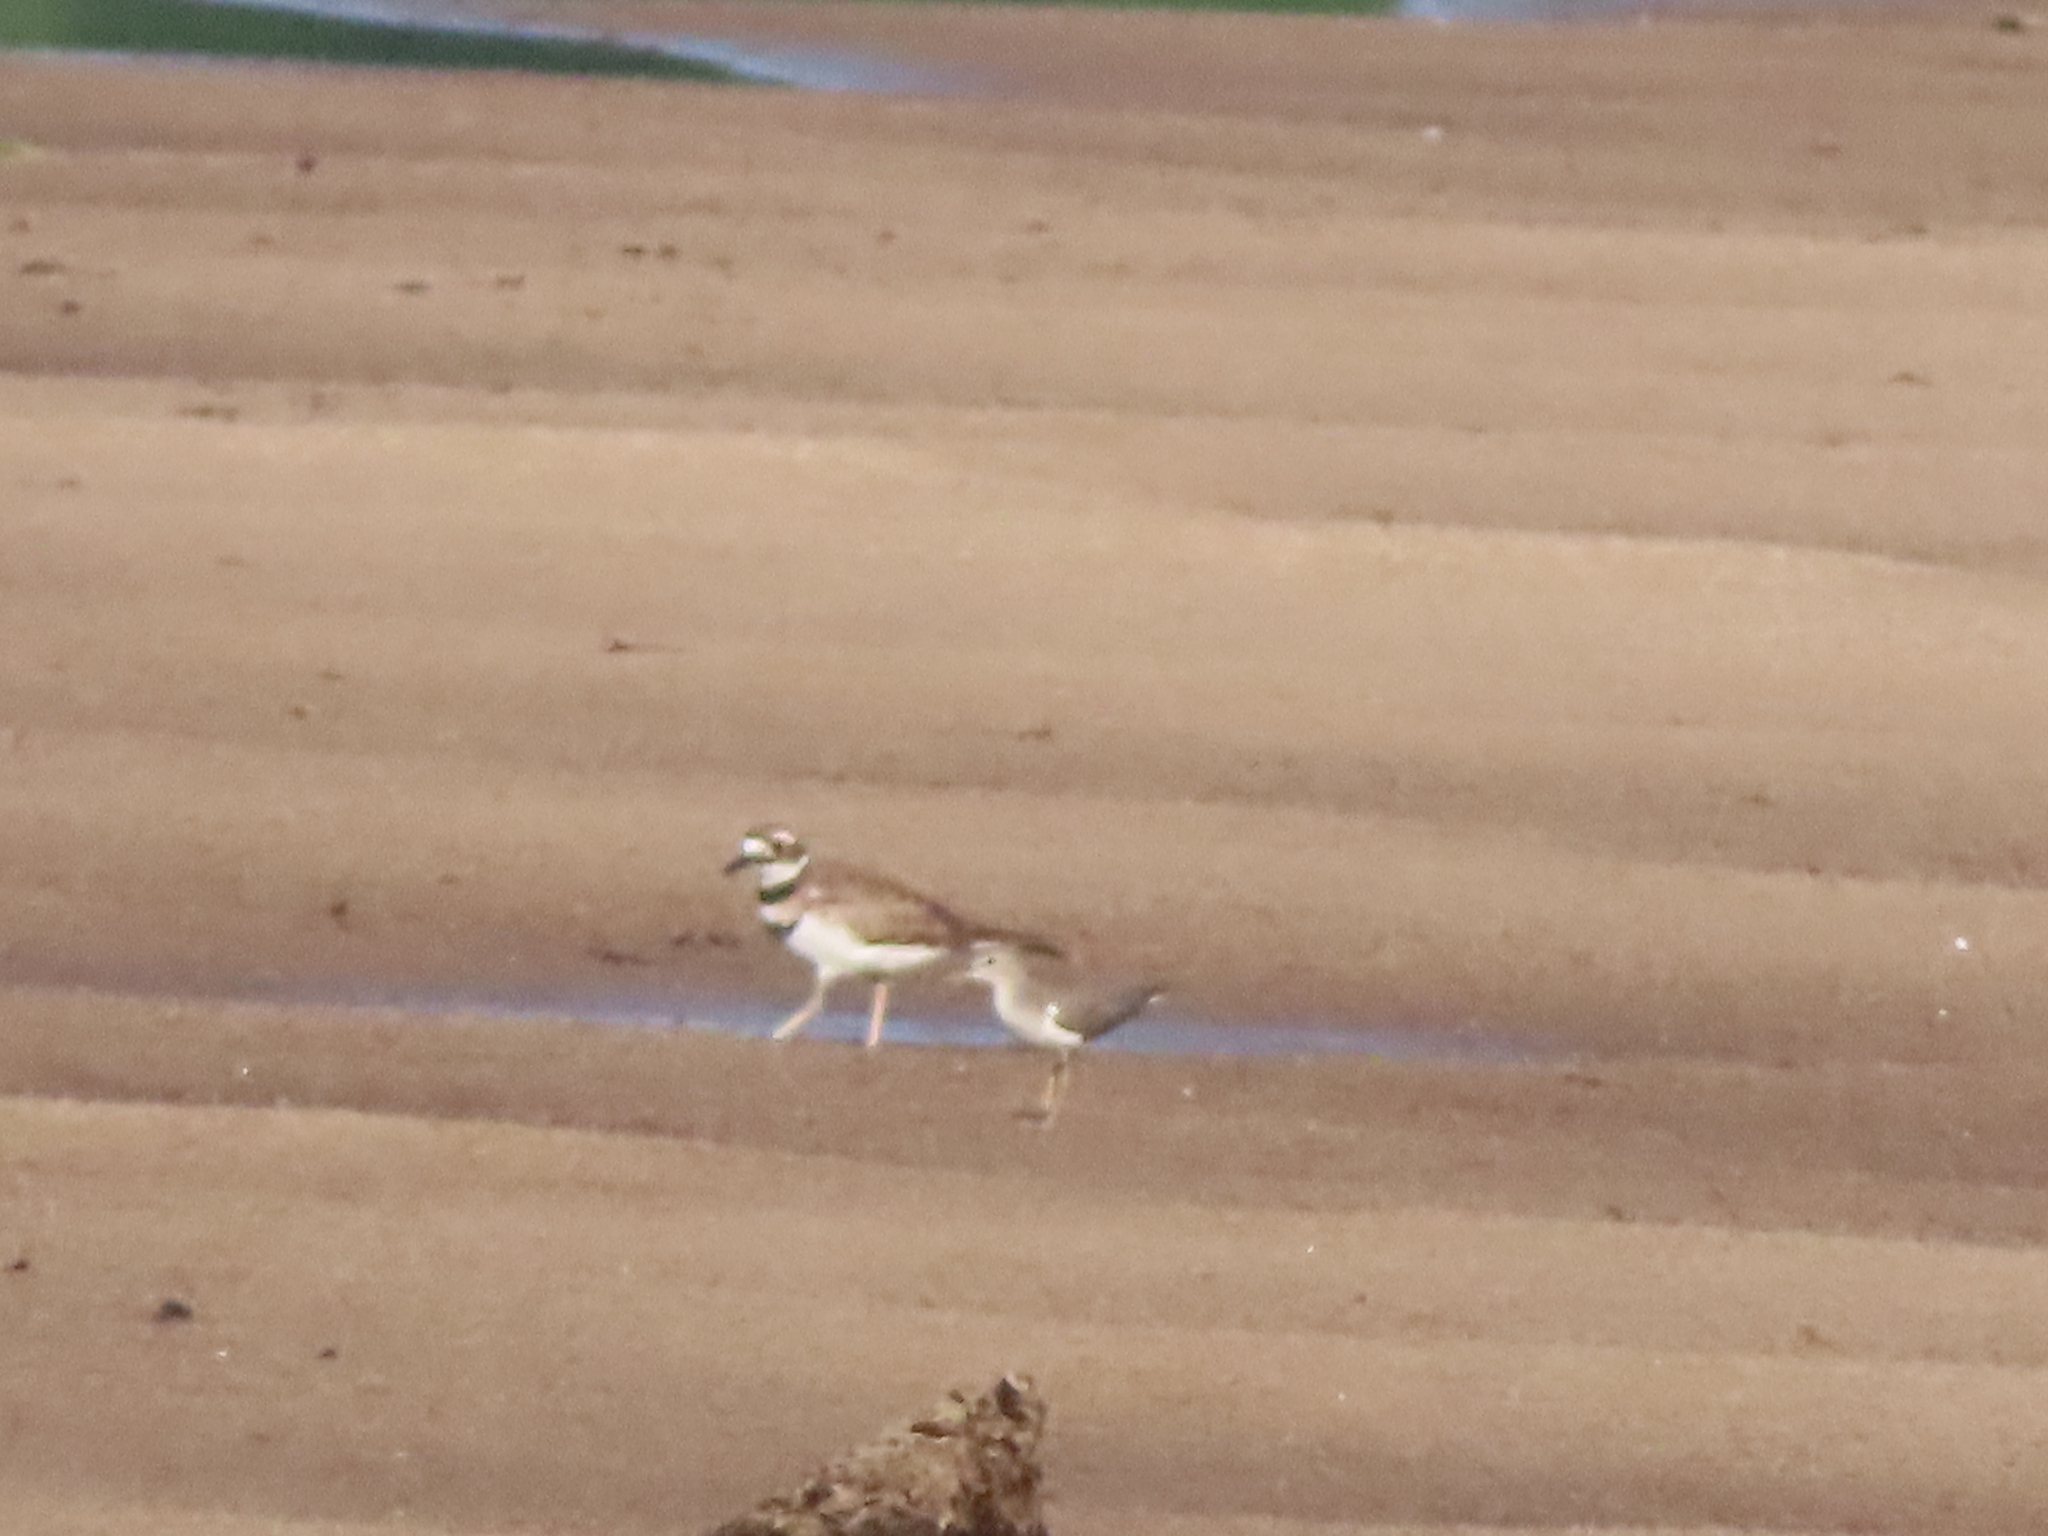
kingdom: Animalia
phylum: Chordata
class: Aves
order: Charadriiformes
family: Scolopacidae
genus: Actitis
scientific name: Actitis macularius
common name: Spotted sandpiper
